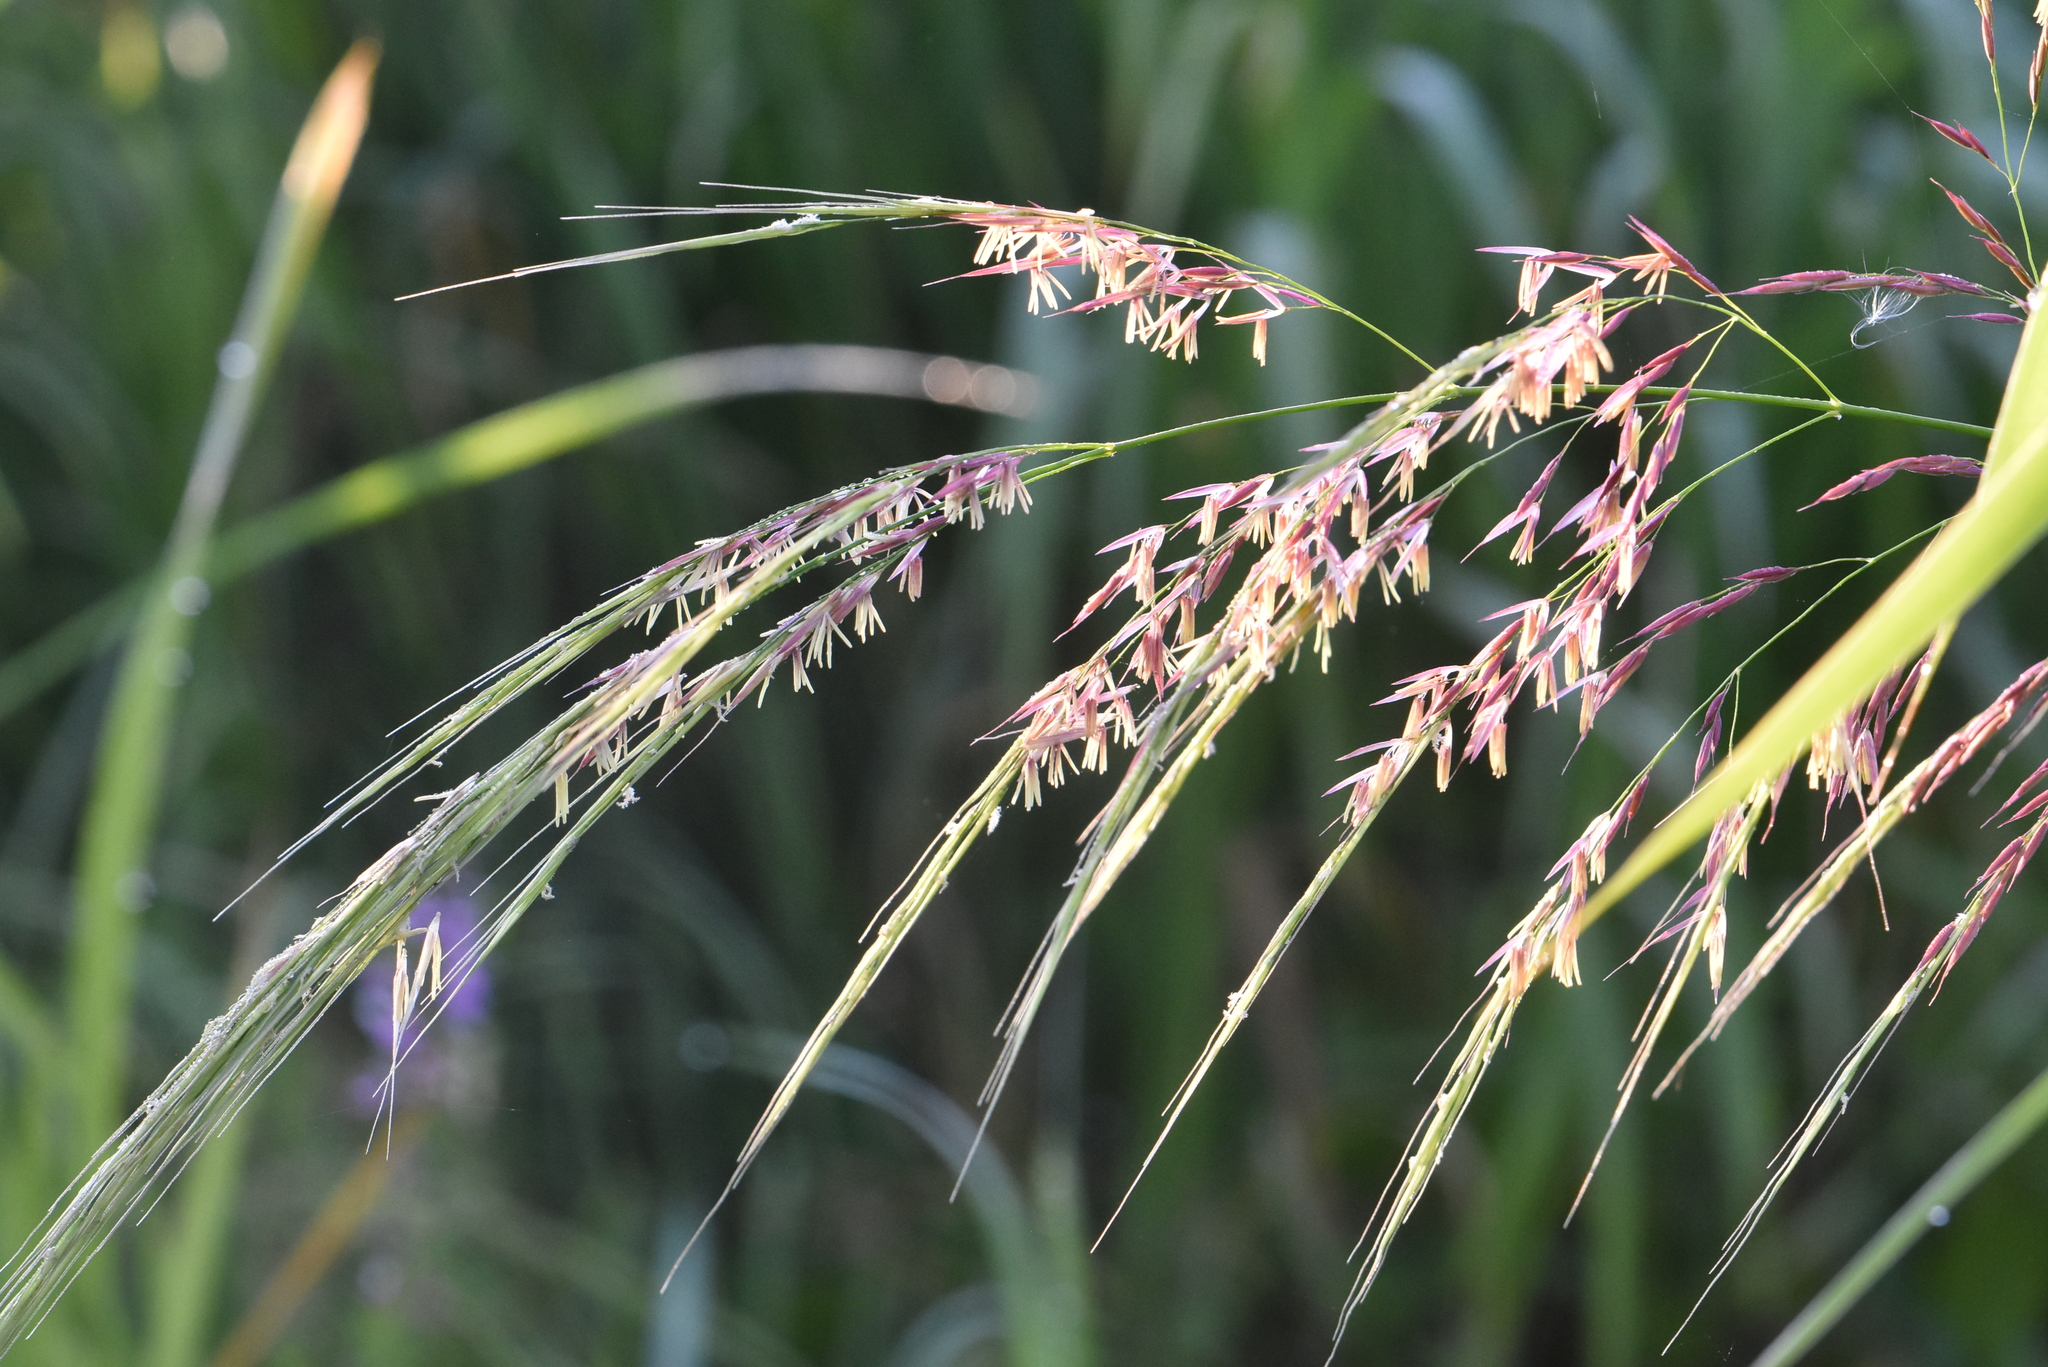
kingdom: Plantae
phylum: Tracheophyta
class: Liliopsida
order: Poales
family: Poaceae
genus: Zizania
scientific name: Zizania latifolia
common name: Manchurian wildrice
